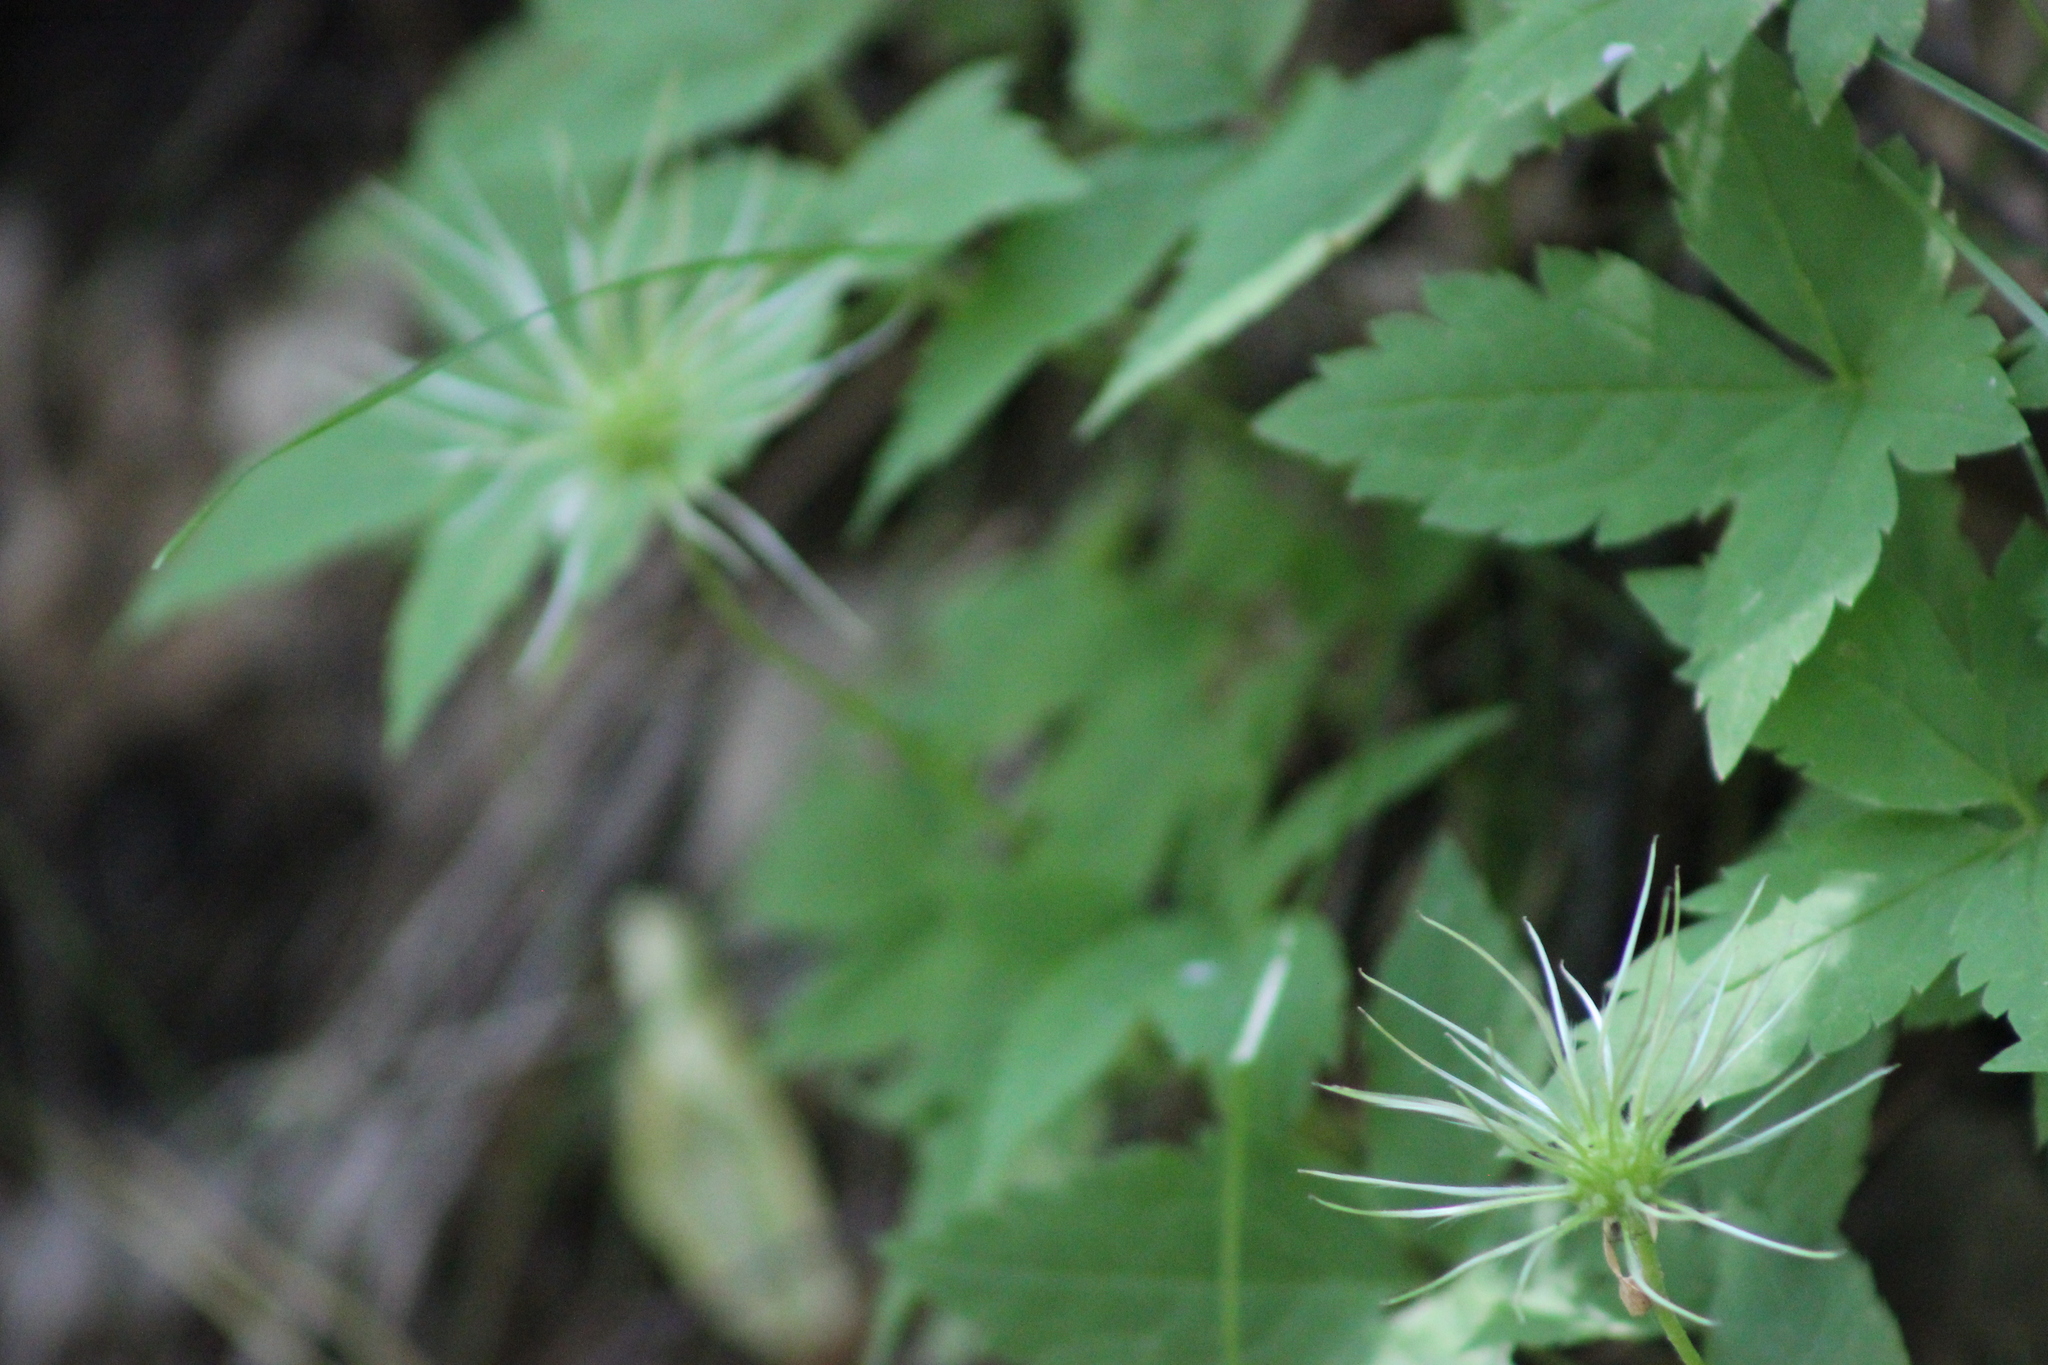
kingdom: Plantae
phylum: Tracheophyta
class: Magnoliopsida
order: Ranunculales
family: Ranunculaceae
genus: Clematis
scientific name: Clematis sibirica
